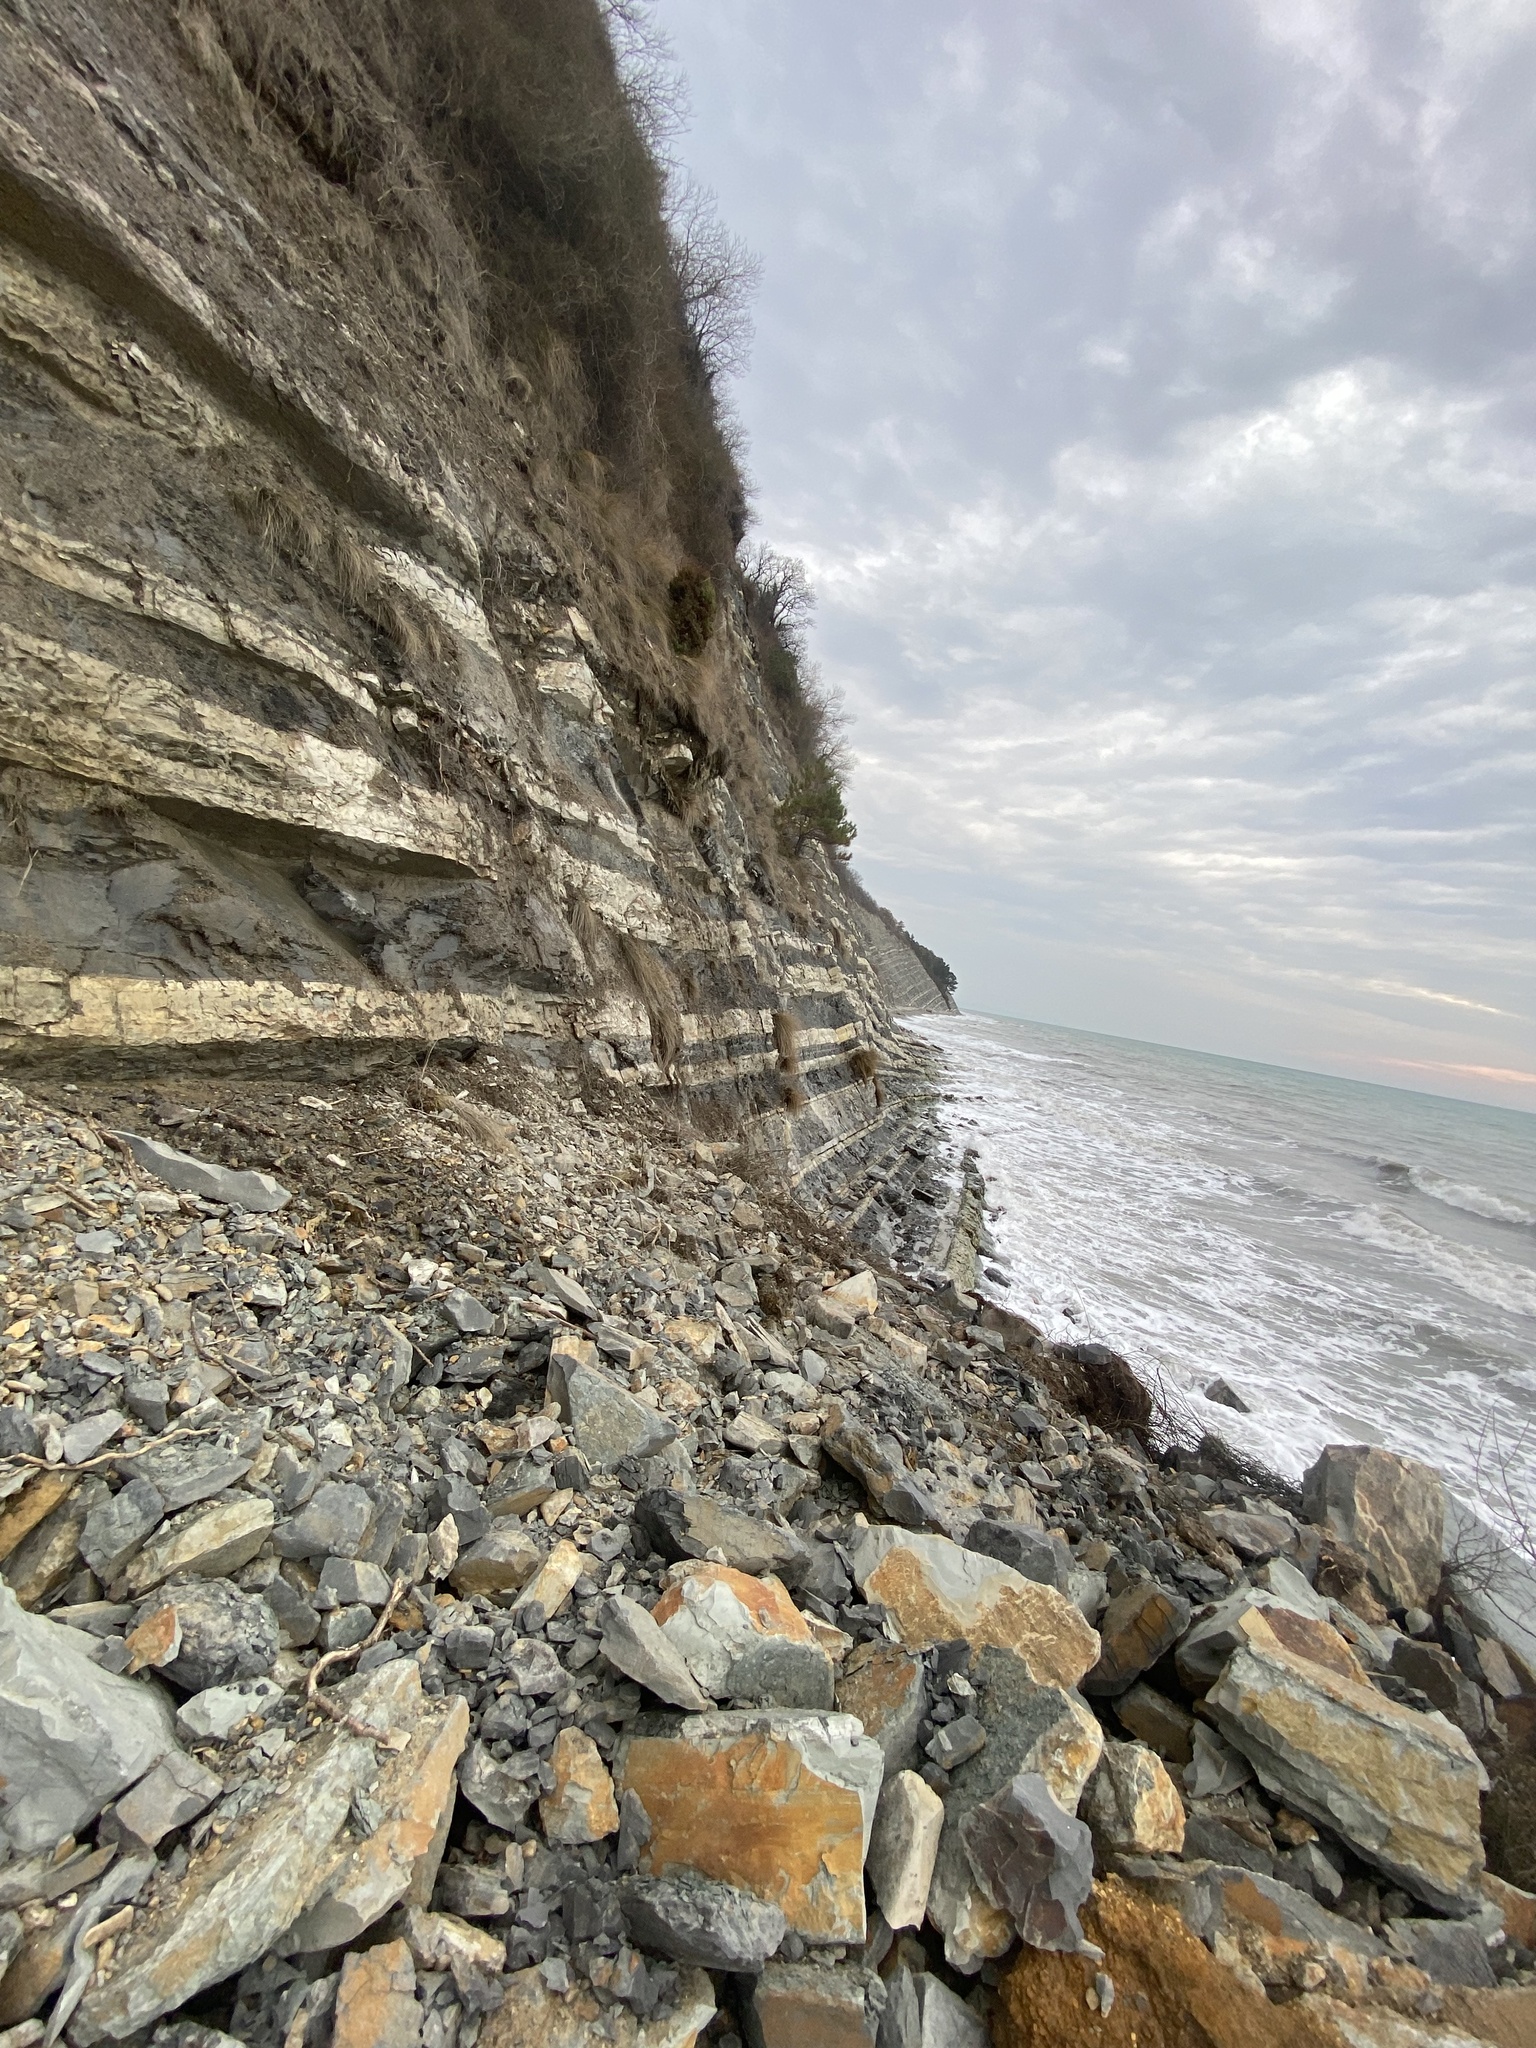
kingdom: Plantae
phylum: Tracheophyta
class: Pinopsida
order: Pinales
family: Pinaceae
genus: Pinus
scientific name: Pinus brutia
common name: Turkish pine
